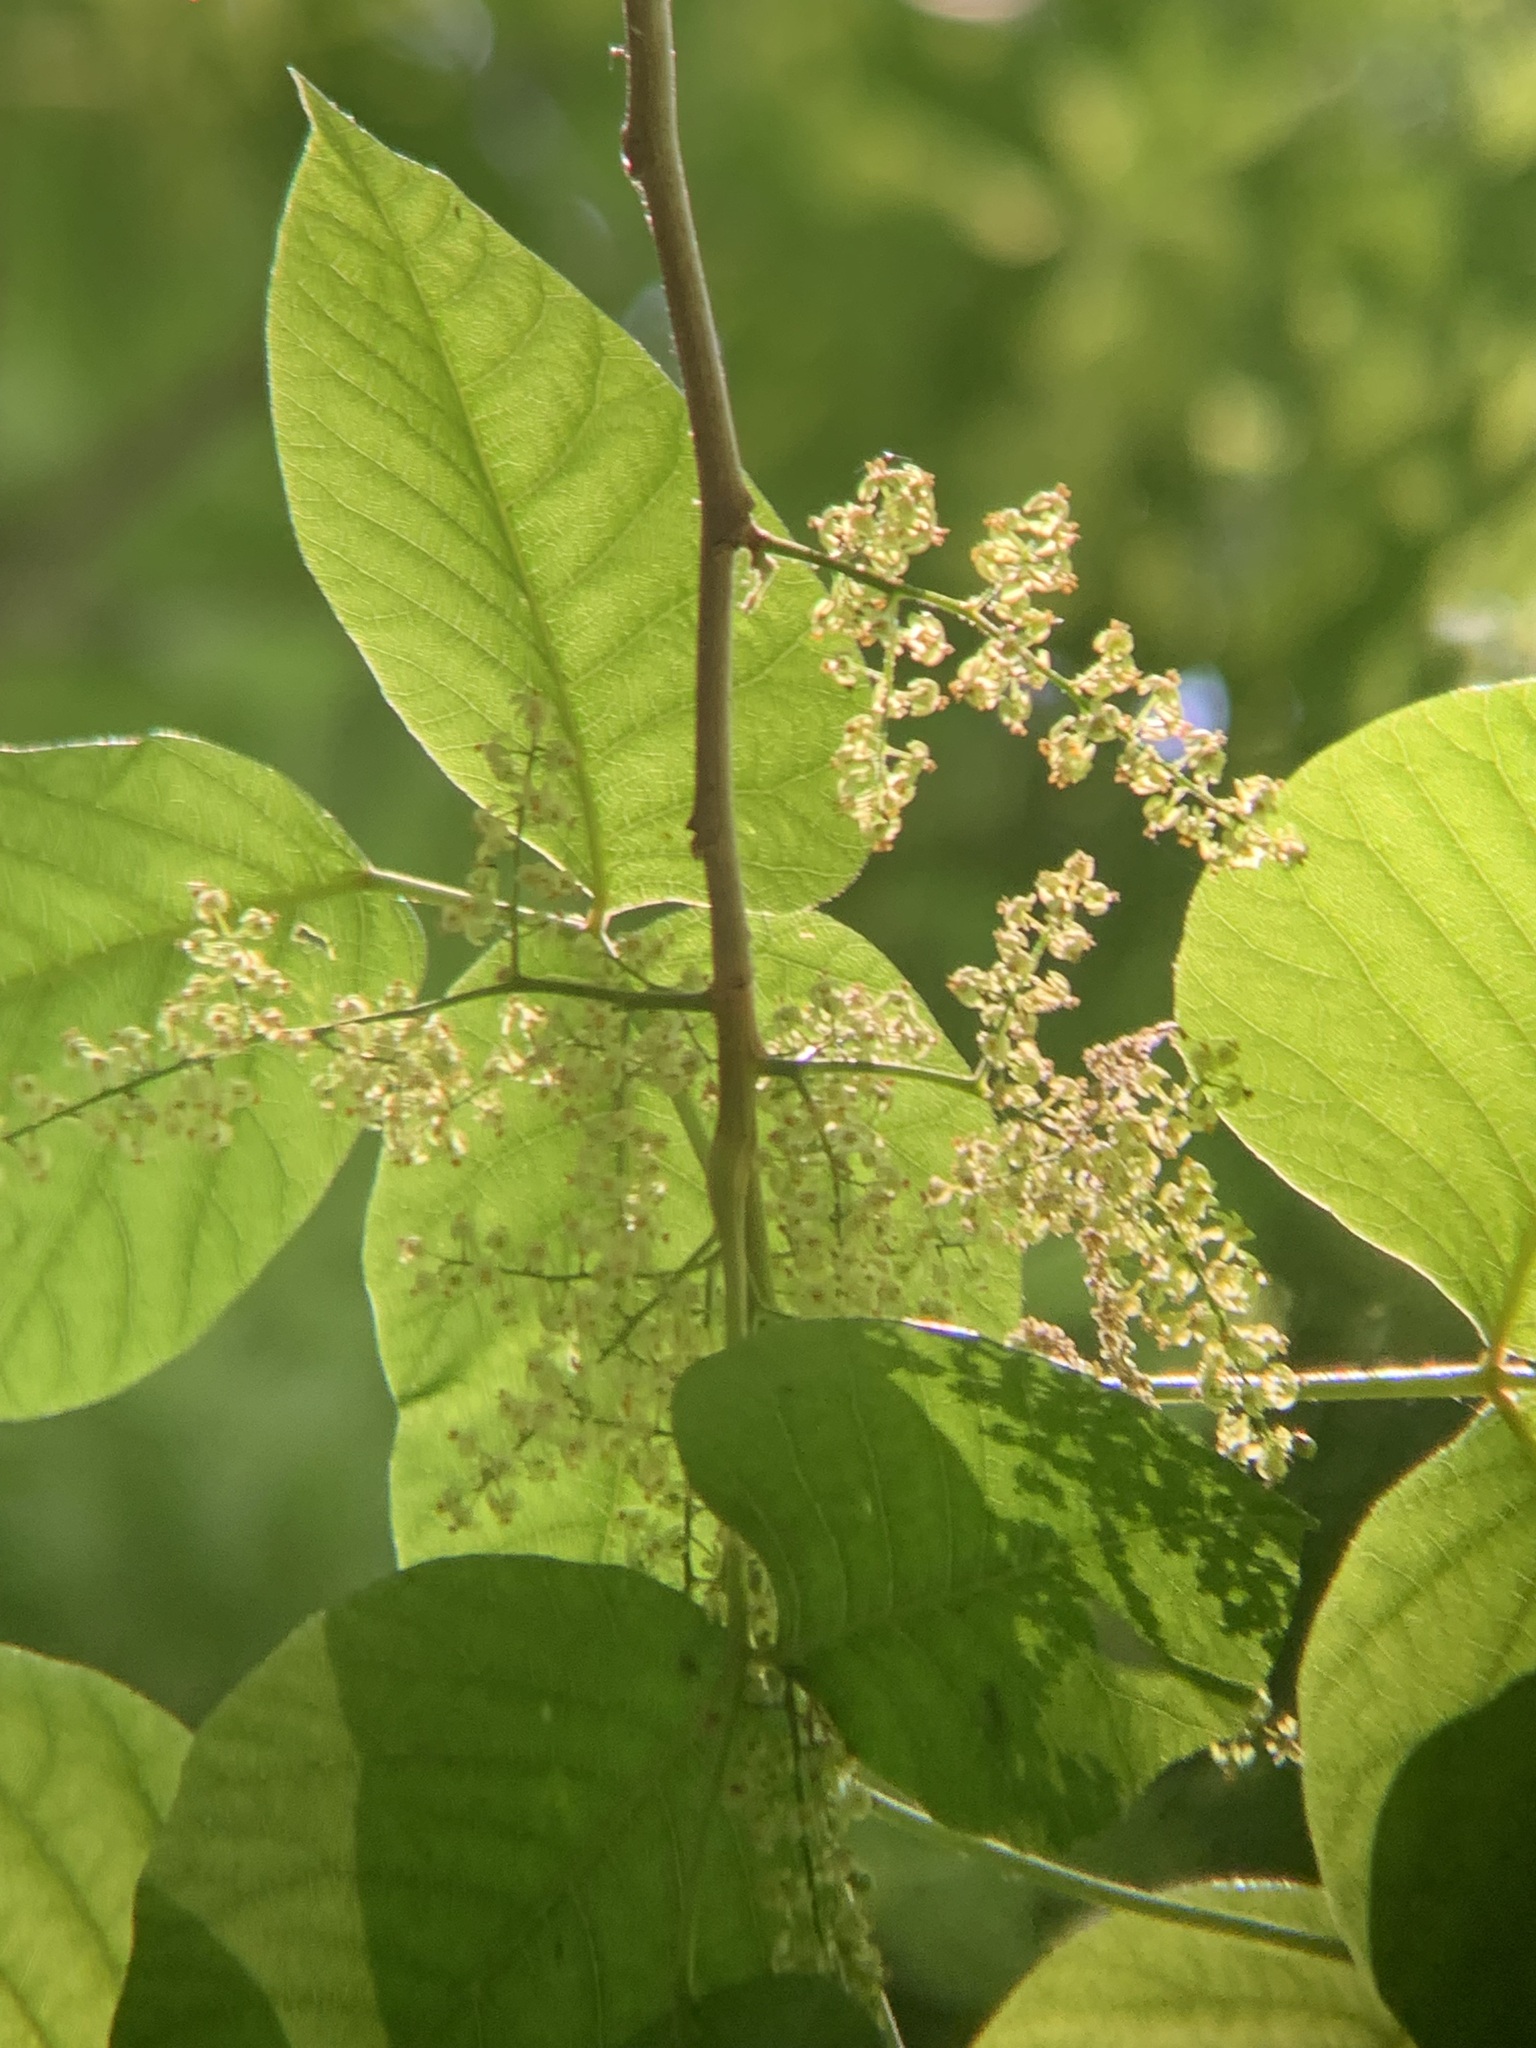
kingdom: Plantae
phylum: Tracheophyta
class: Magnoliopsida
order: Sapindales
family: Anacardiaceae
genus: Toxicodendron
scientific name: Toxicodendron radicans
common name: Poison ivy
